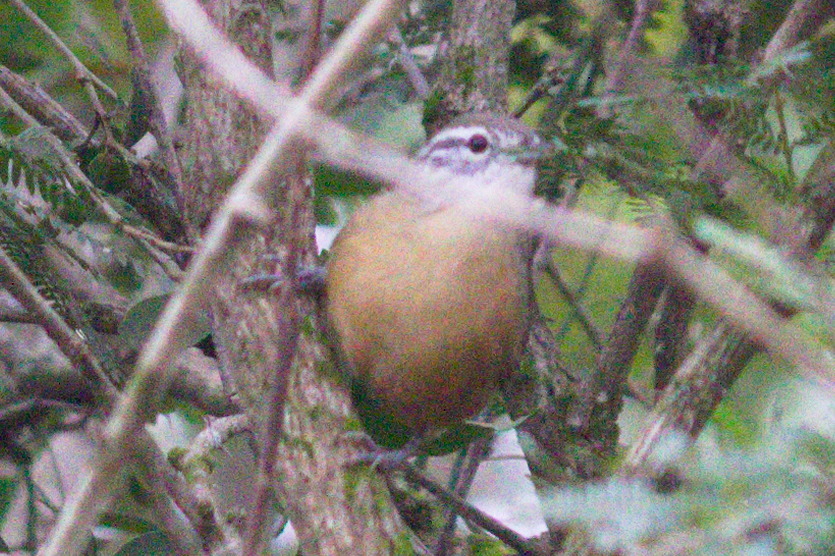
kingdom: Animalia
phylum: Chordata
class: Aves
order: Passeriformes
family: Troglodytidae
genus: Cantorchilus
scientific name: Cantorchilus guarayanus
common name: Fawn-breasted wren
